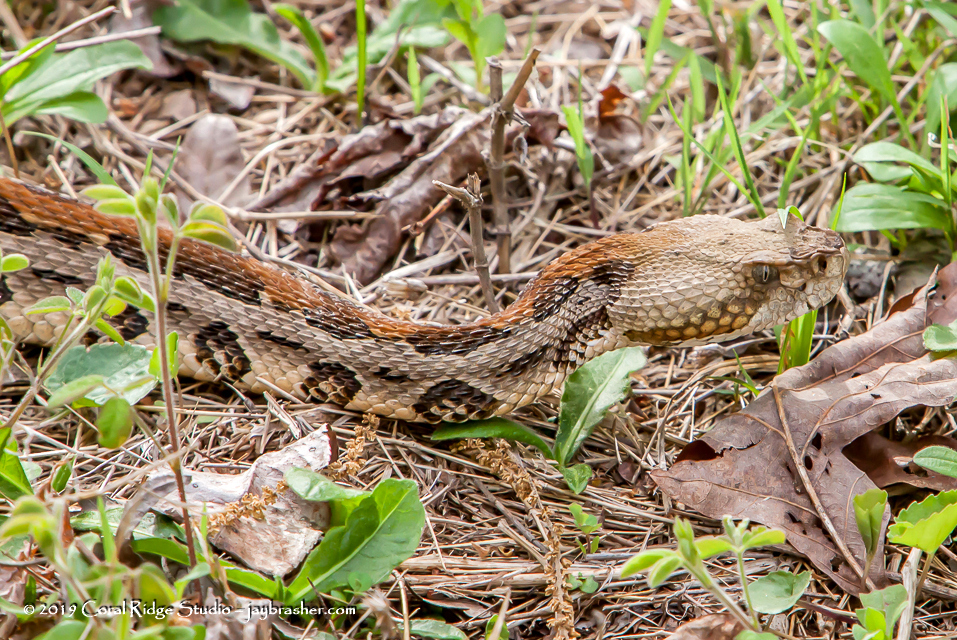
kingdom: Animalia
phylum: Chordata
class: Squamata
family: Viperidae
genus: Crotalus
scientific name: Crotalus horridus
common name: Timber rattlesnake
